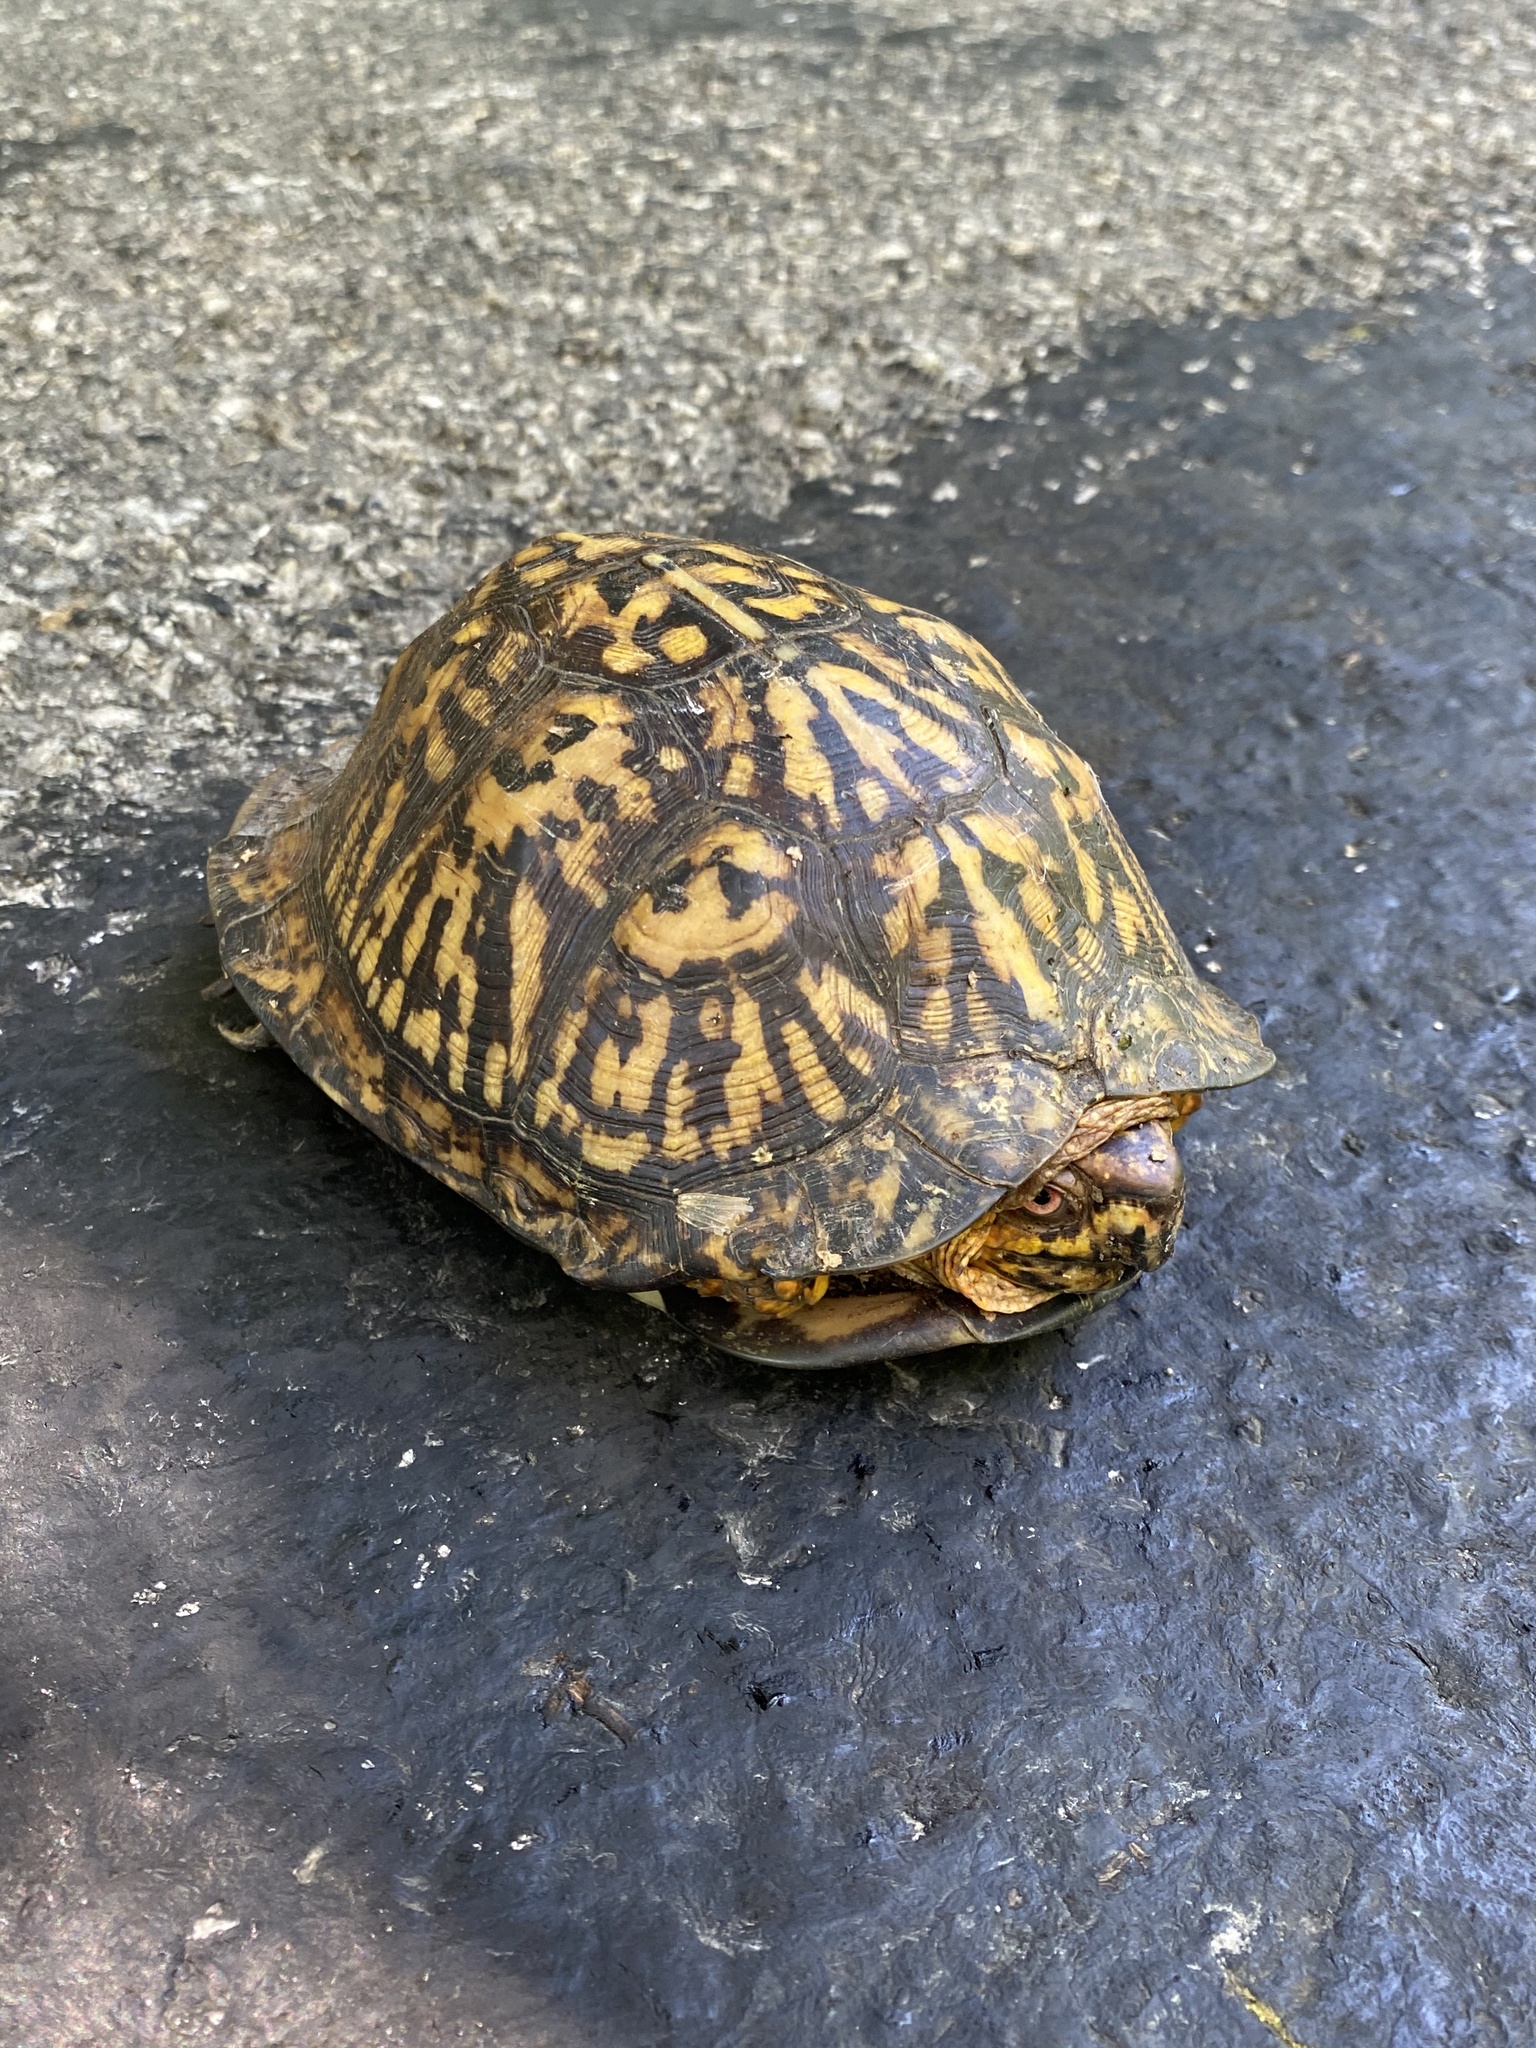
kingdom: Animalia
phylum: Chordata
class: Testudines
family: Emydidae
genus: Terrapene
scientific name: Terrapene carolina
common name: Common box turtle
